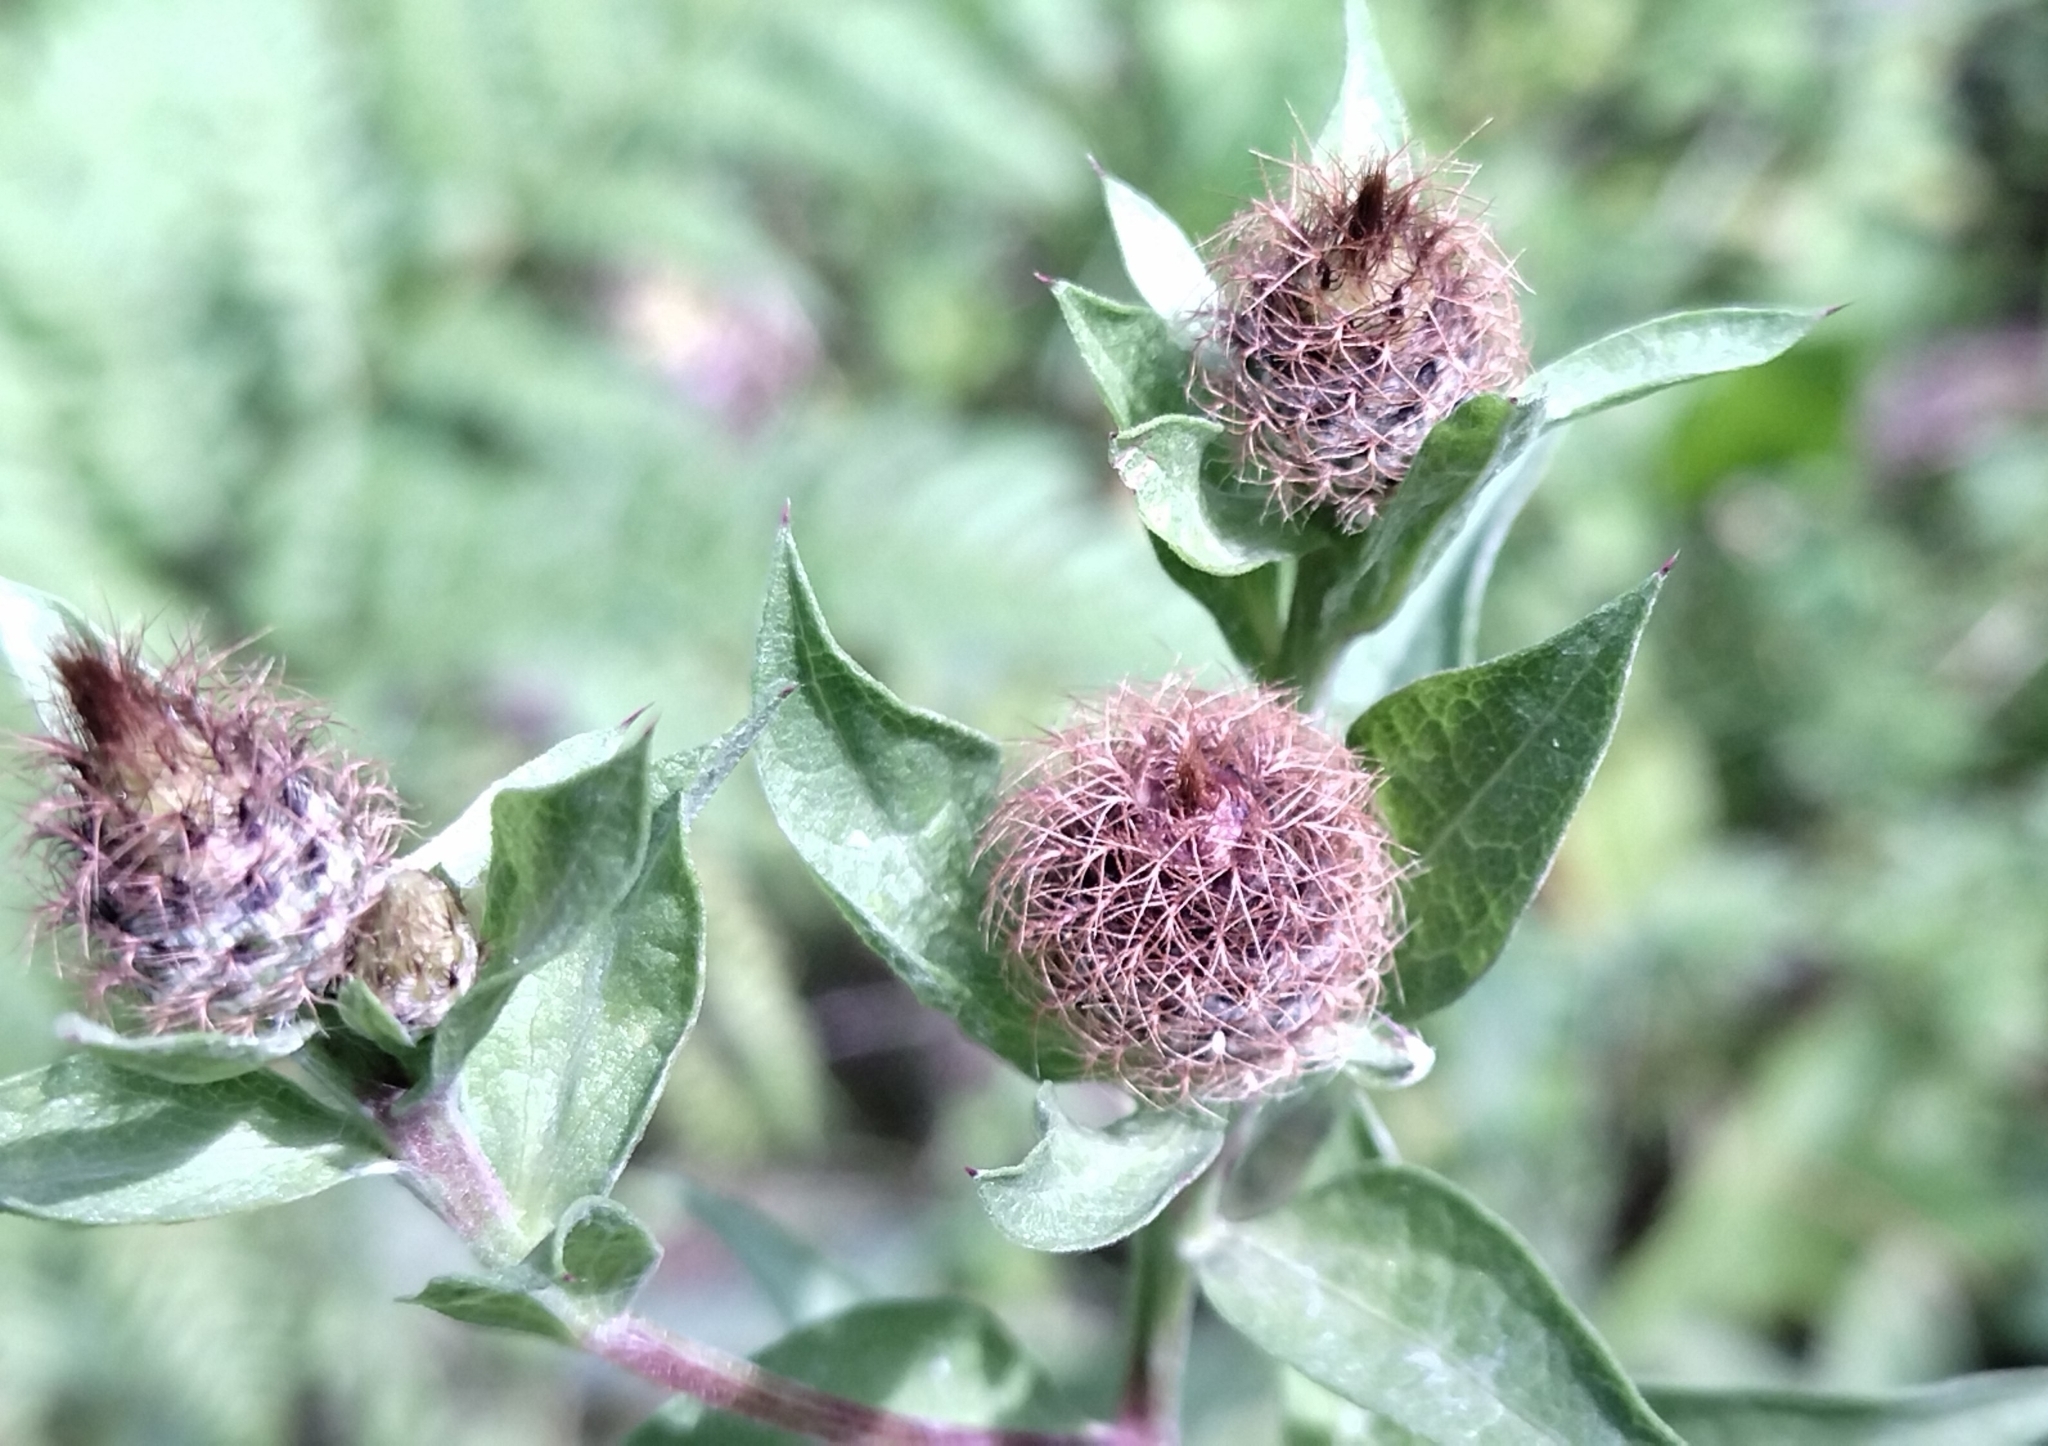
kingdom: Plantae
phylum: Tracheophyta
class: Magnoliopsida
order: Asterales
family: Asteraceae
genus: Centaurea
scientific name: Centaurea phrygia
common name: Wig knapweed
